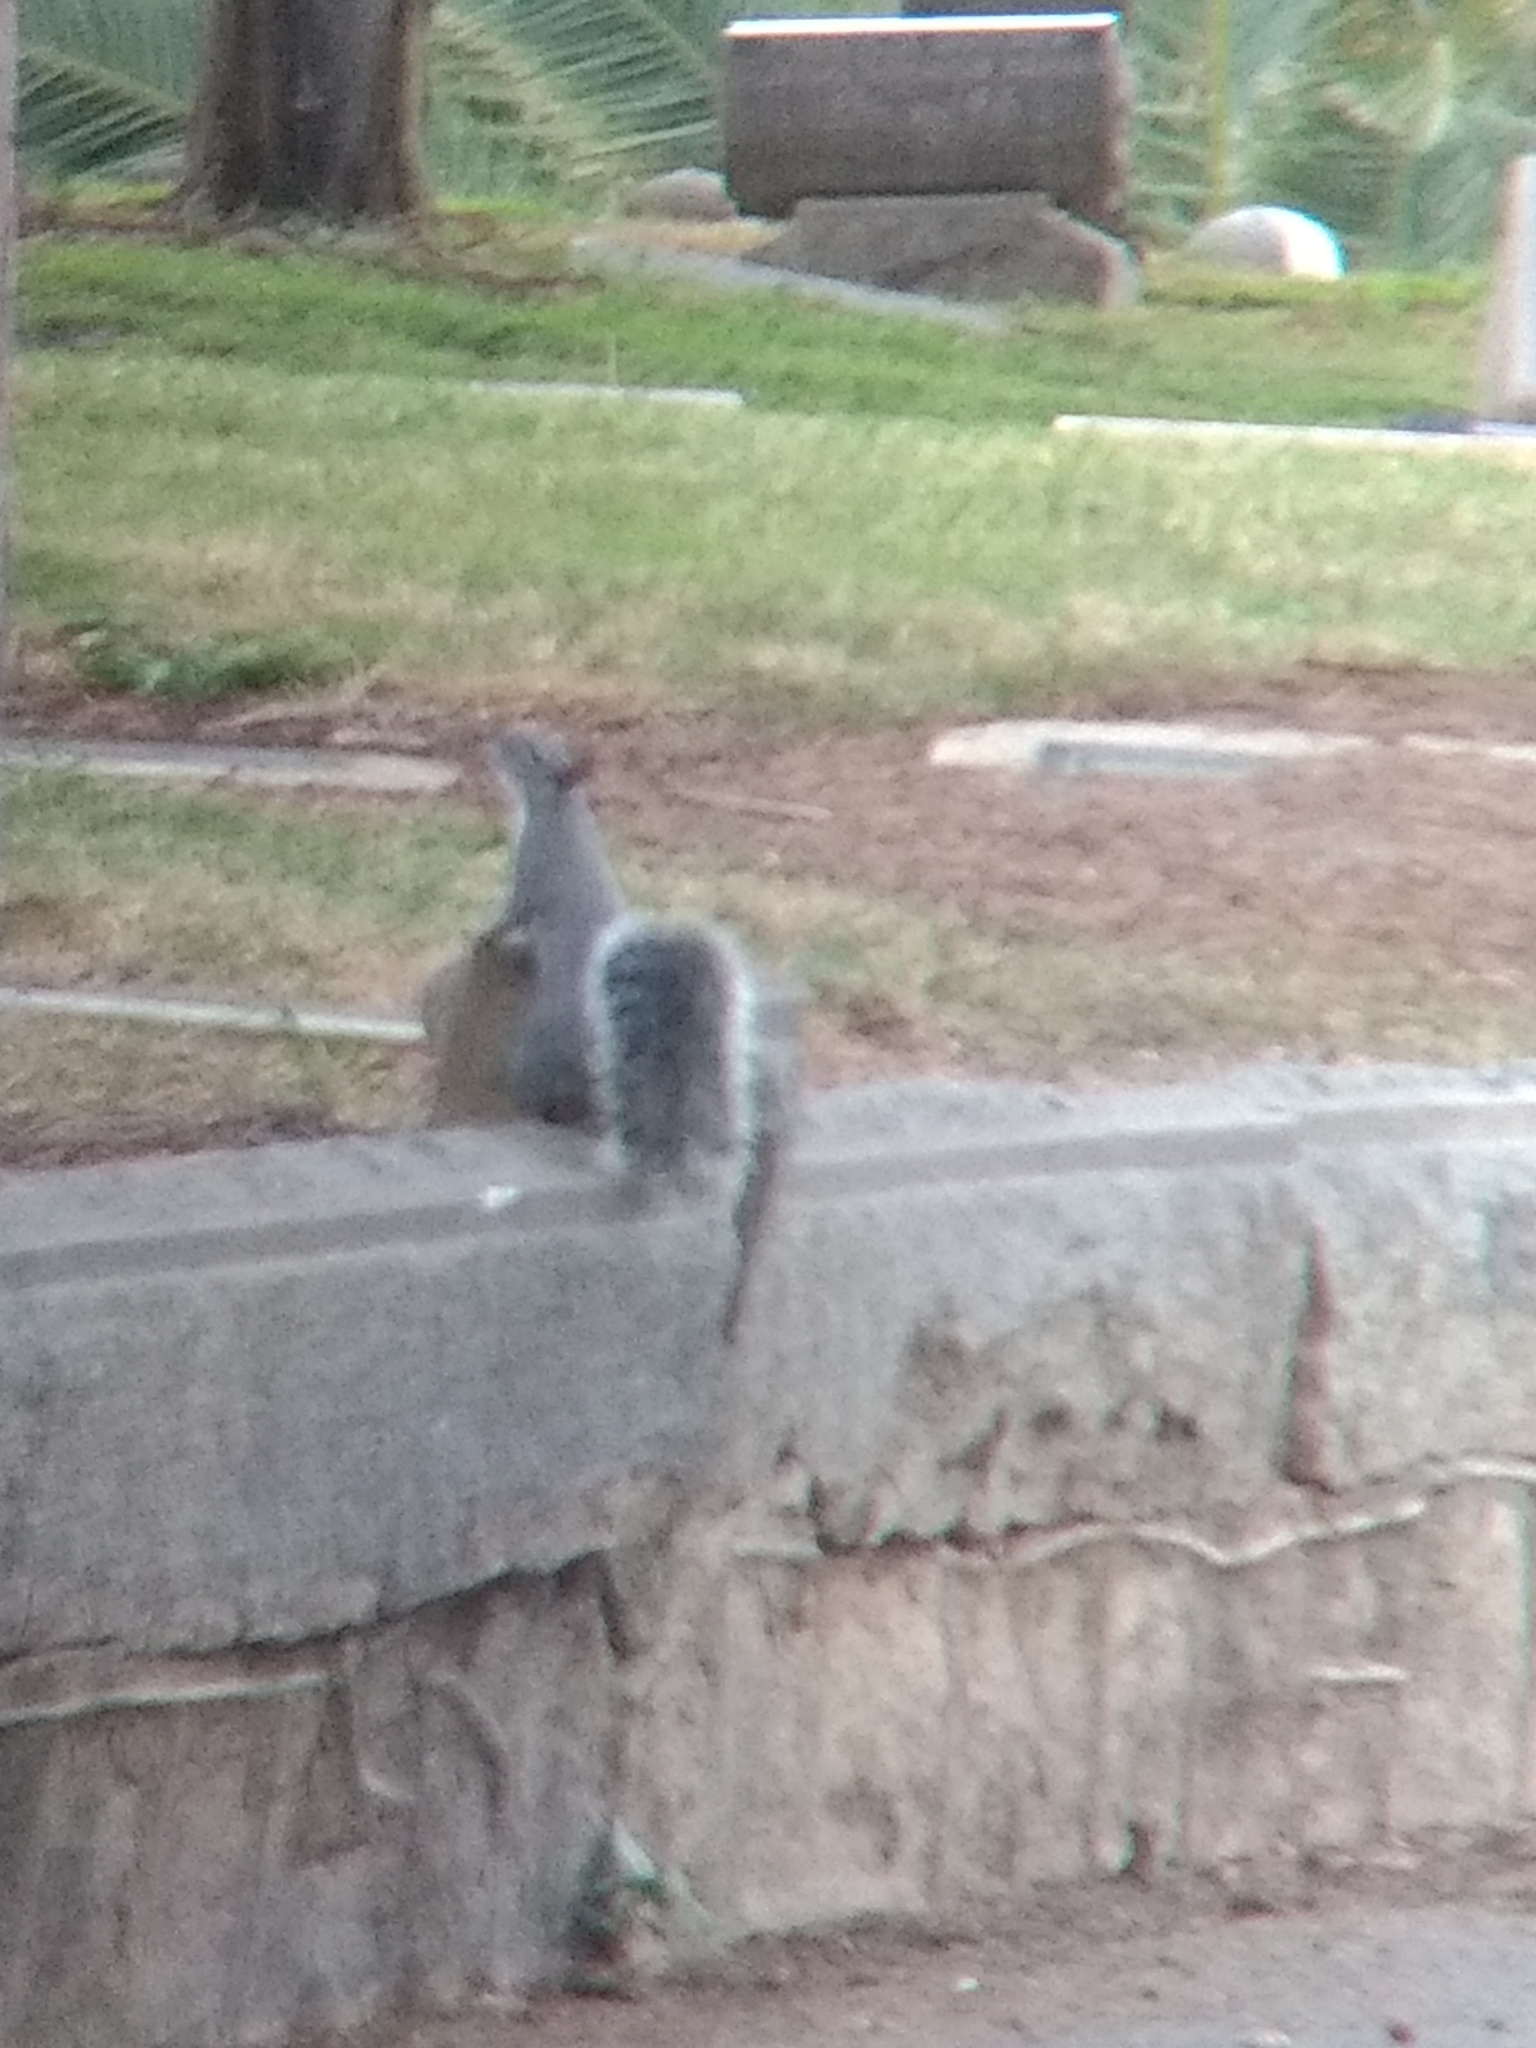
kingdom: Animalia
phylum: Chordata
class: Mammalia
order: Rodentia
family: Sciuridae
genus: Sciurus
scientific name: Sciurus griseus
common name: Western gray squirrel
